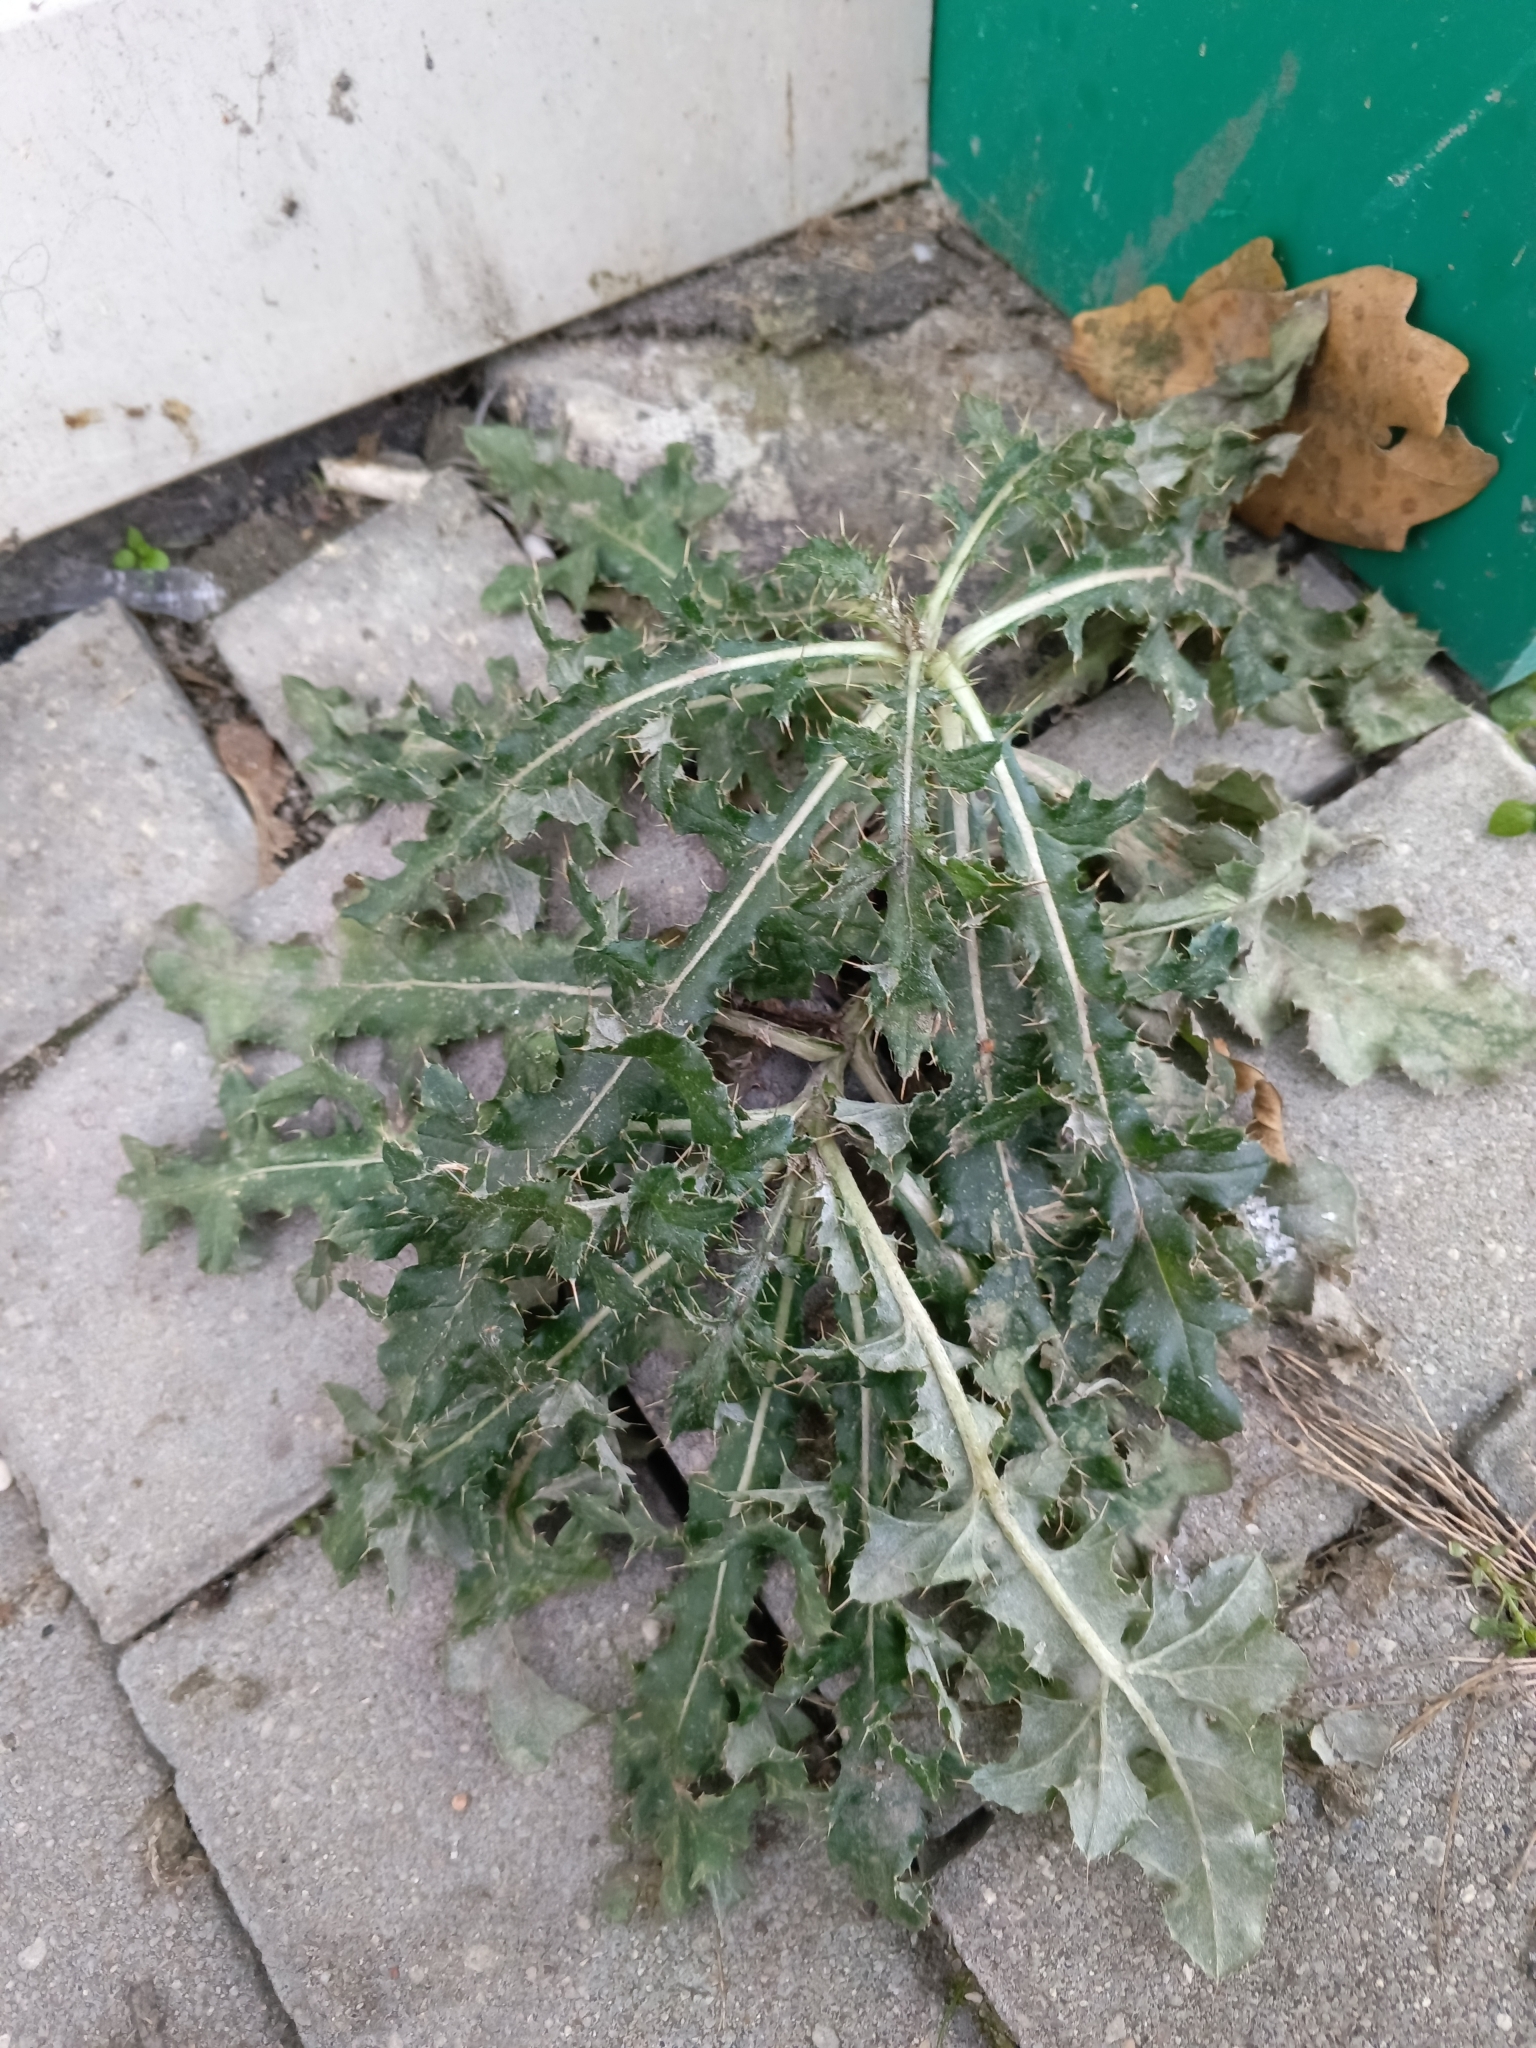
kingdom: Plantae
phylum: Tracheophyta
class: Magnoliopsida
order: Asterales
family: Asteraceae
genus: Cirsium
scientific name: Cirsium arvense
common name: Creeping thistle
